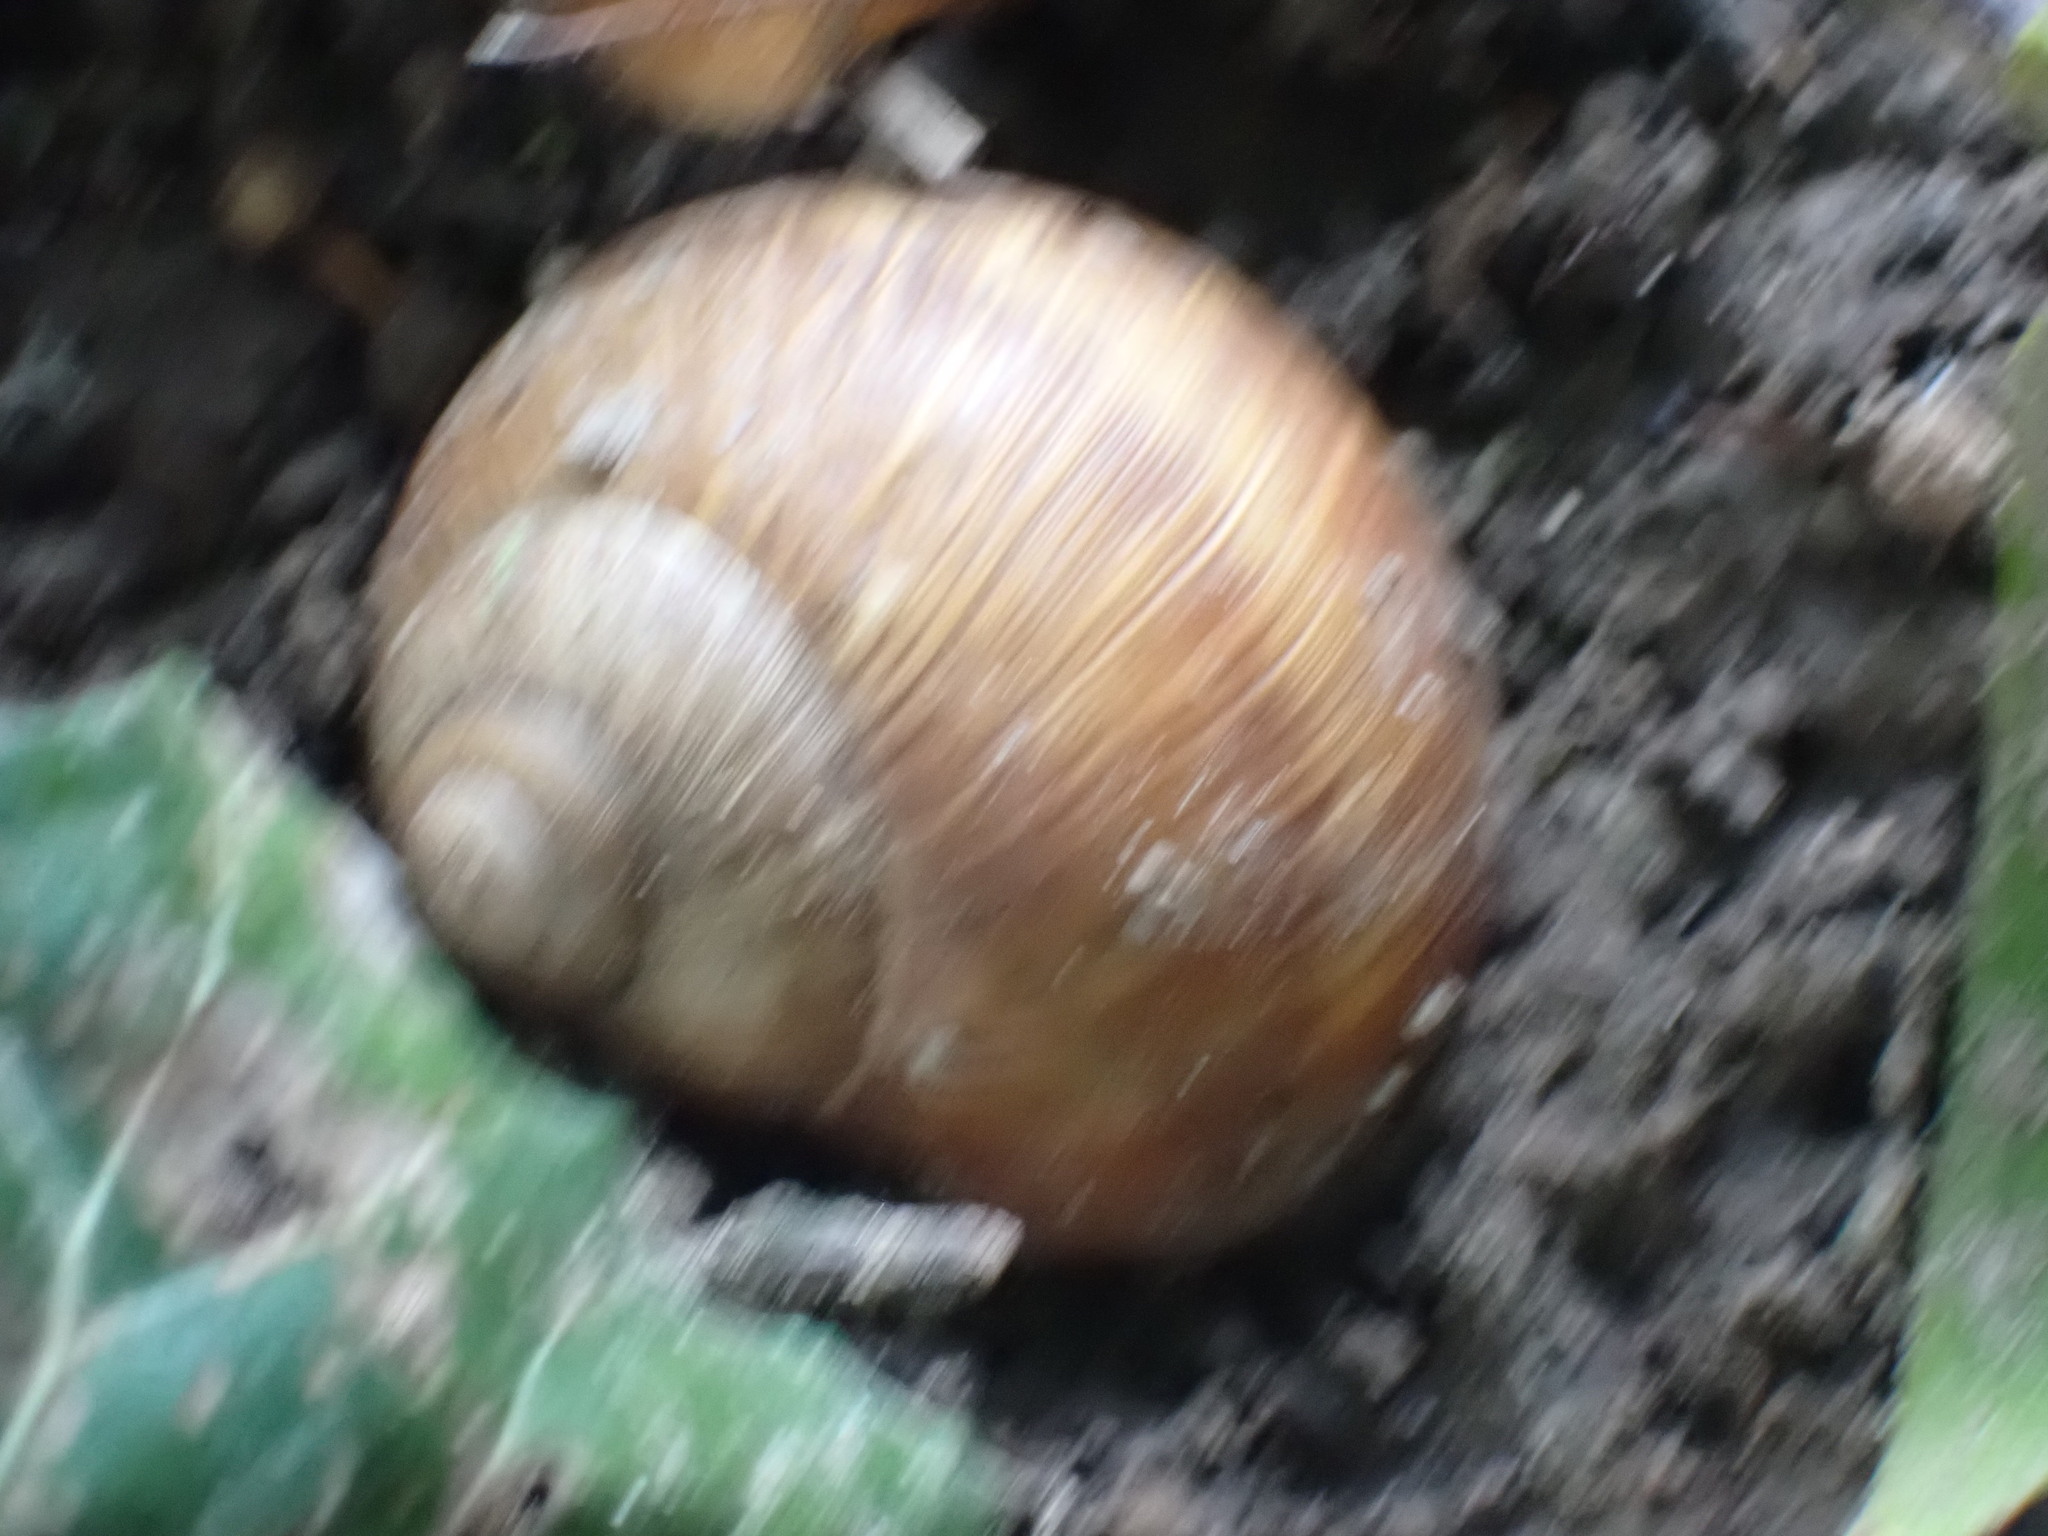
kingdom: Animalia
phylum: Mollusca
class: Gastropoda
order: Stylommatophora
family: Helicidae
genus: Helix
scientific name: Helix pomatia
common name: Roman snail
